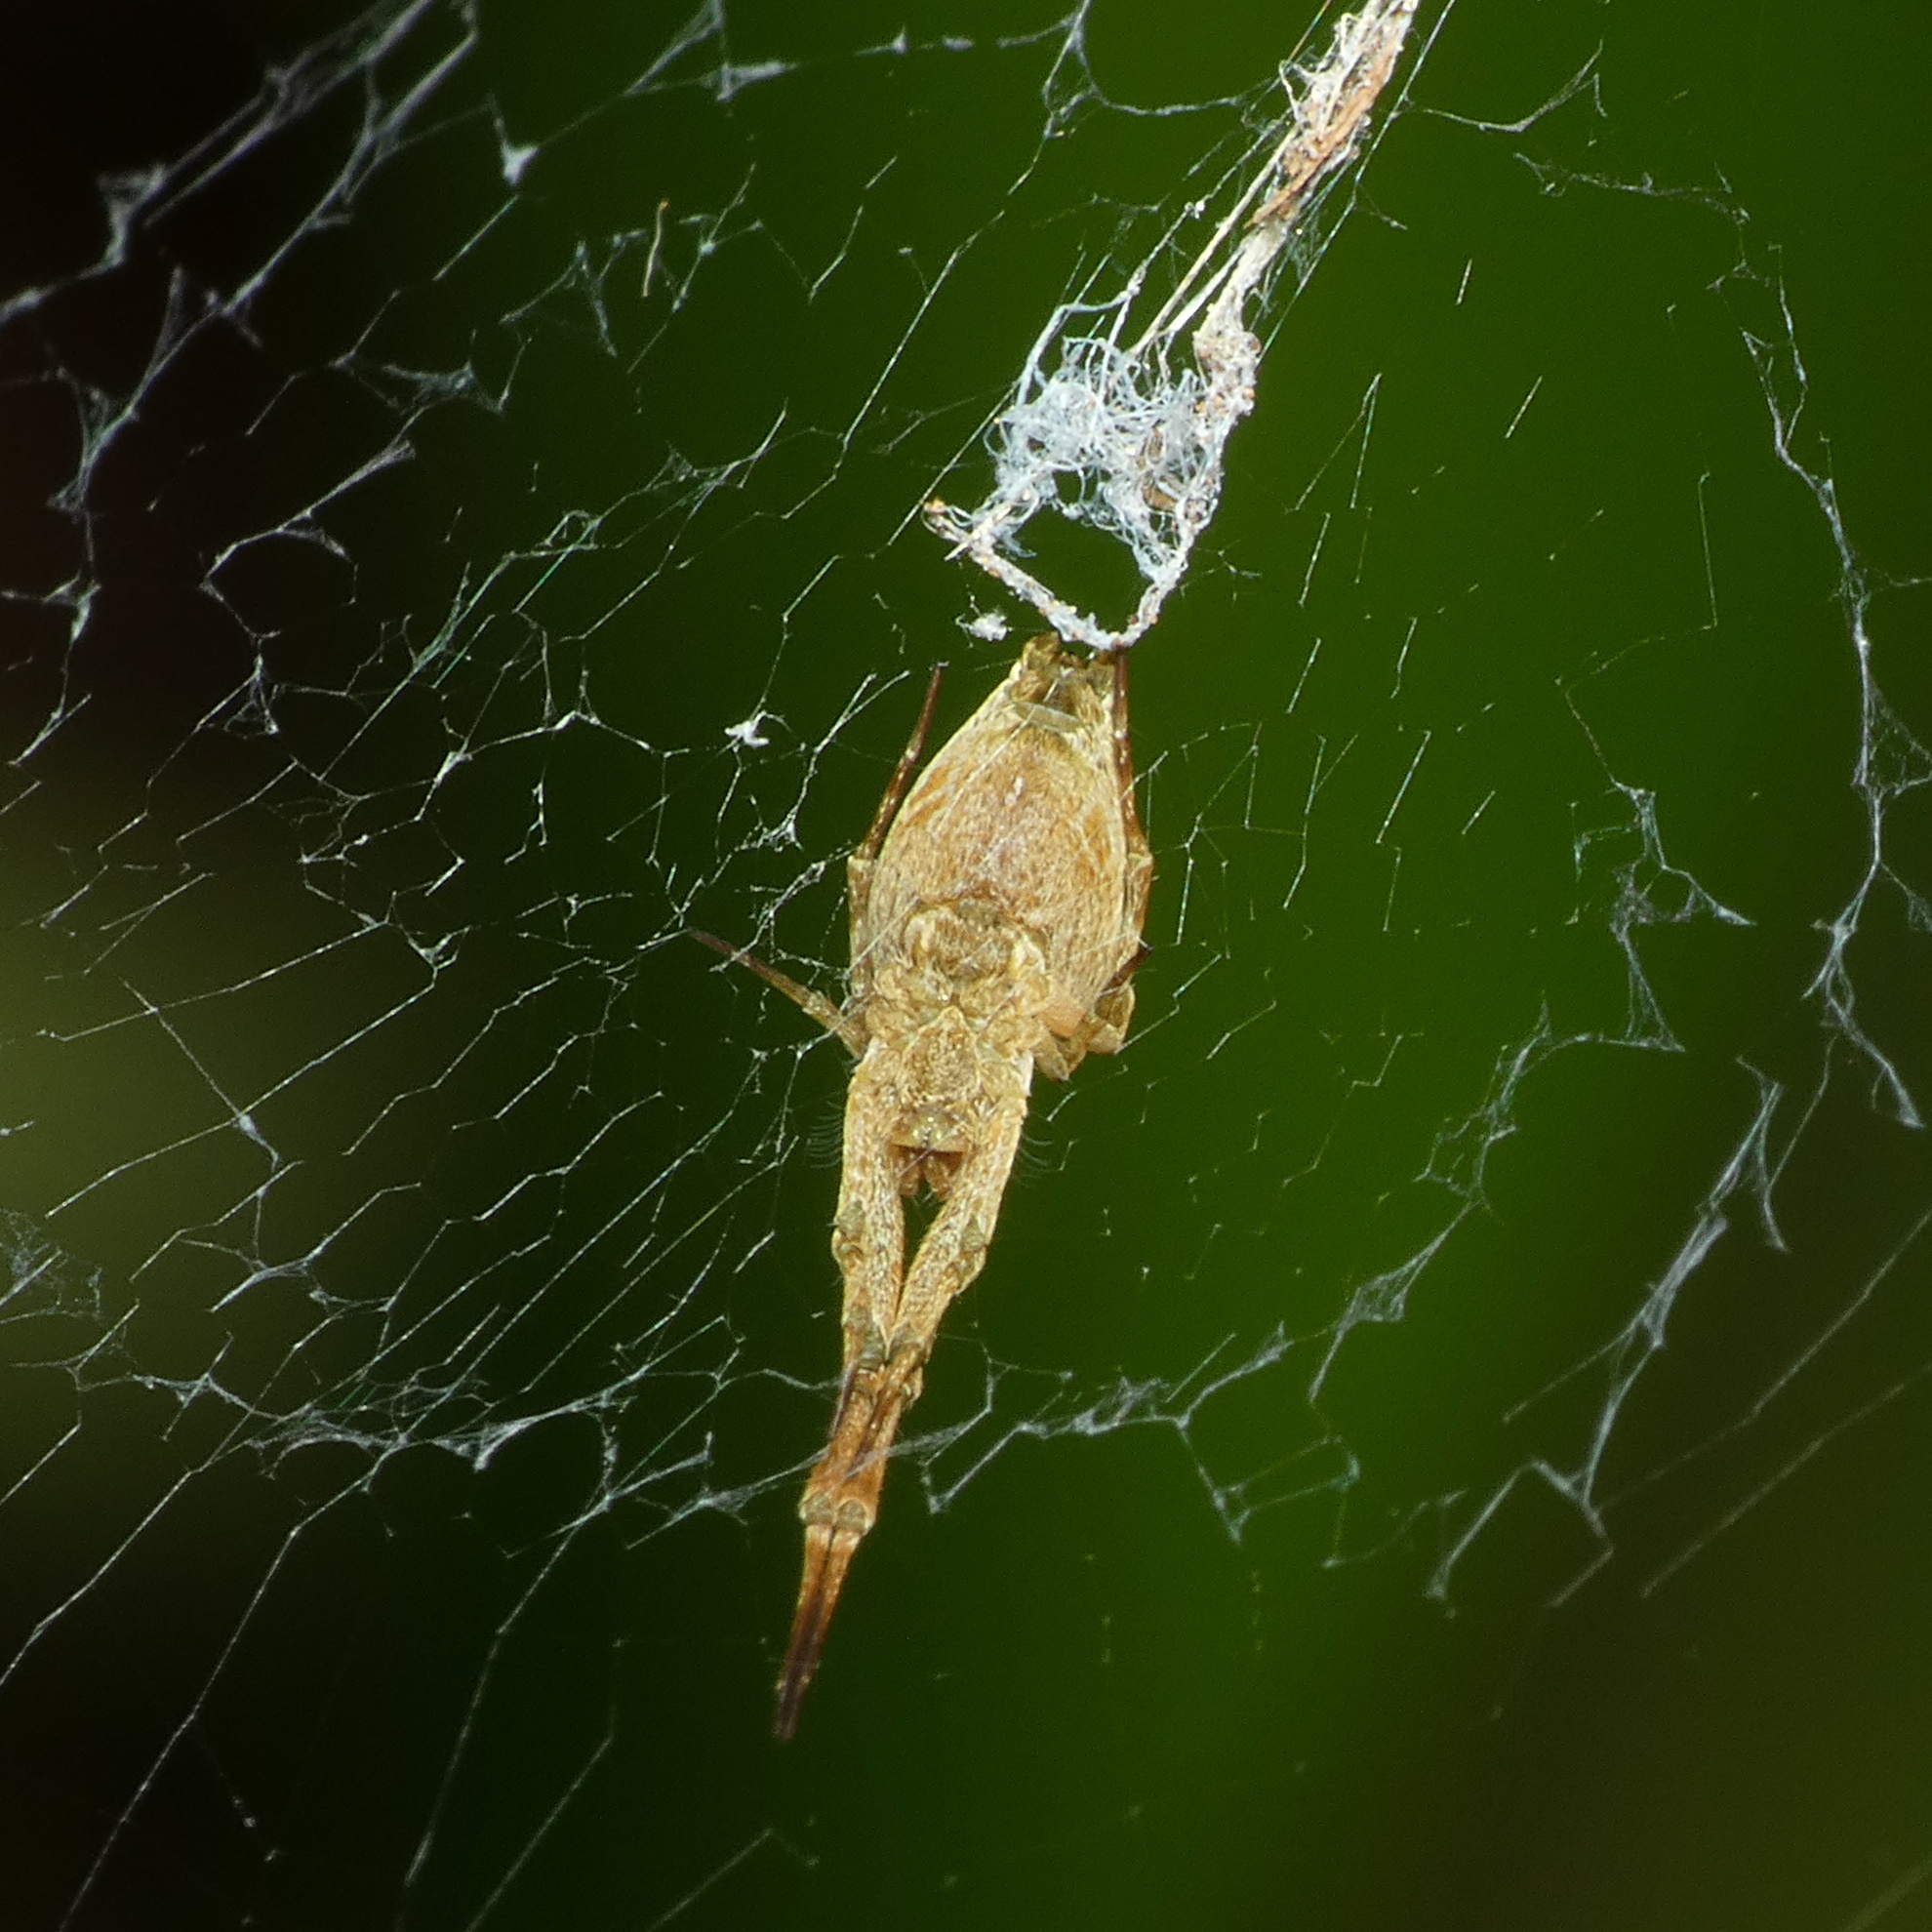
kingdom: Animalia
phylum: Arthropoda
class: Arachnida
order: Araneae
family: Uloboridae
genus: Uloborus
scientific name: Uloborus plumipes
